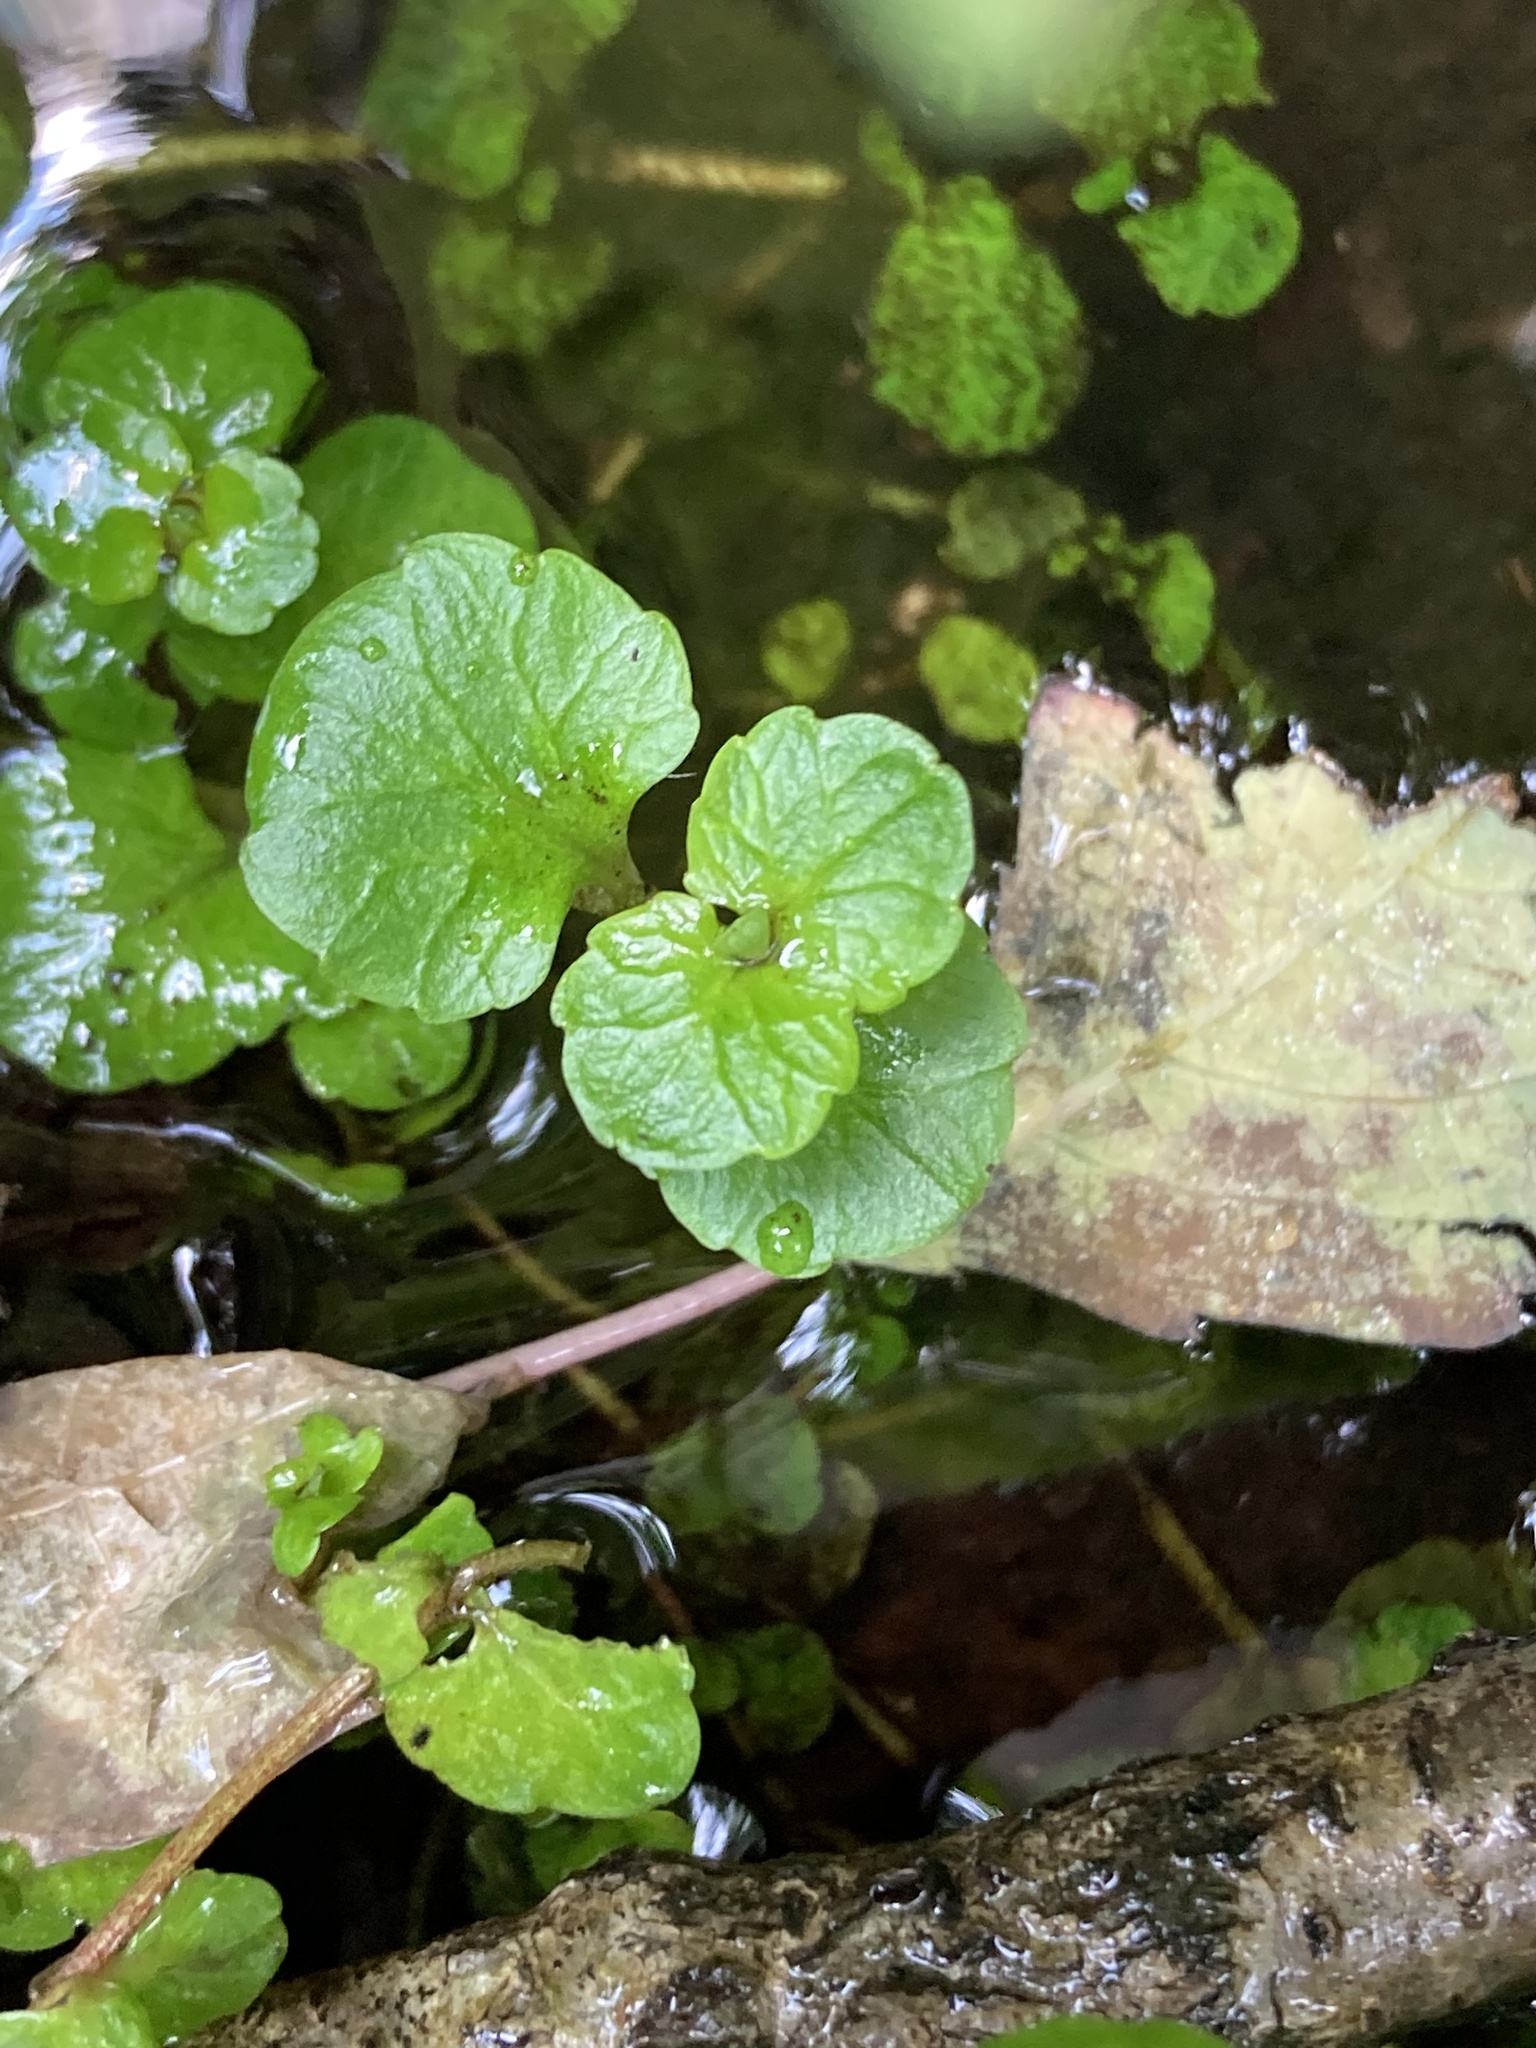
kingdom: Plantae
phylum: Tracheophyta
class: Magnoliopsida
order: Saxifragales
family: Saxifragaceae
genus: Chrysosplenium
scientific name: Chrysosplenium americanum
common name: American golden-saxifrage
